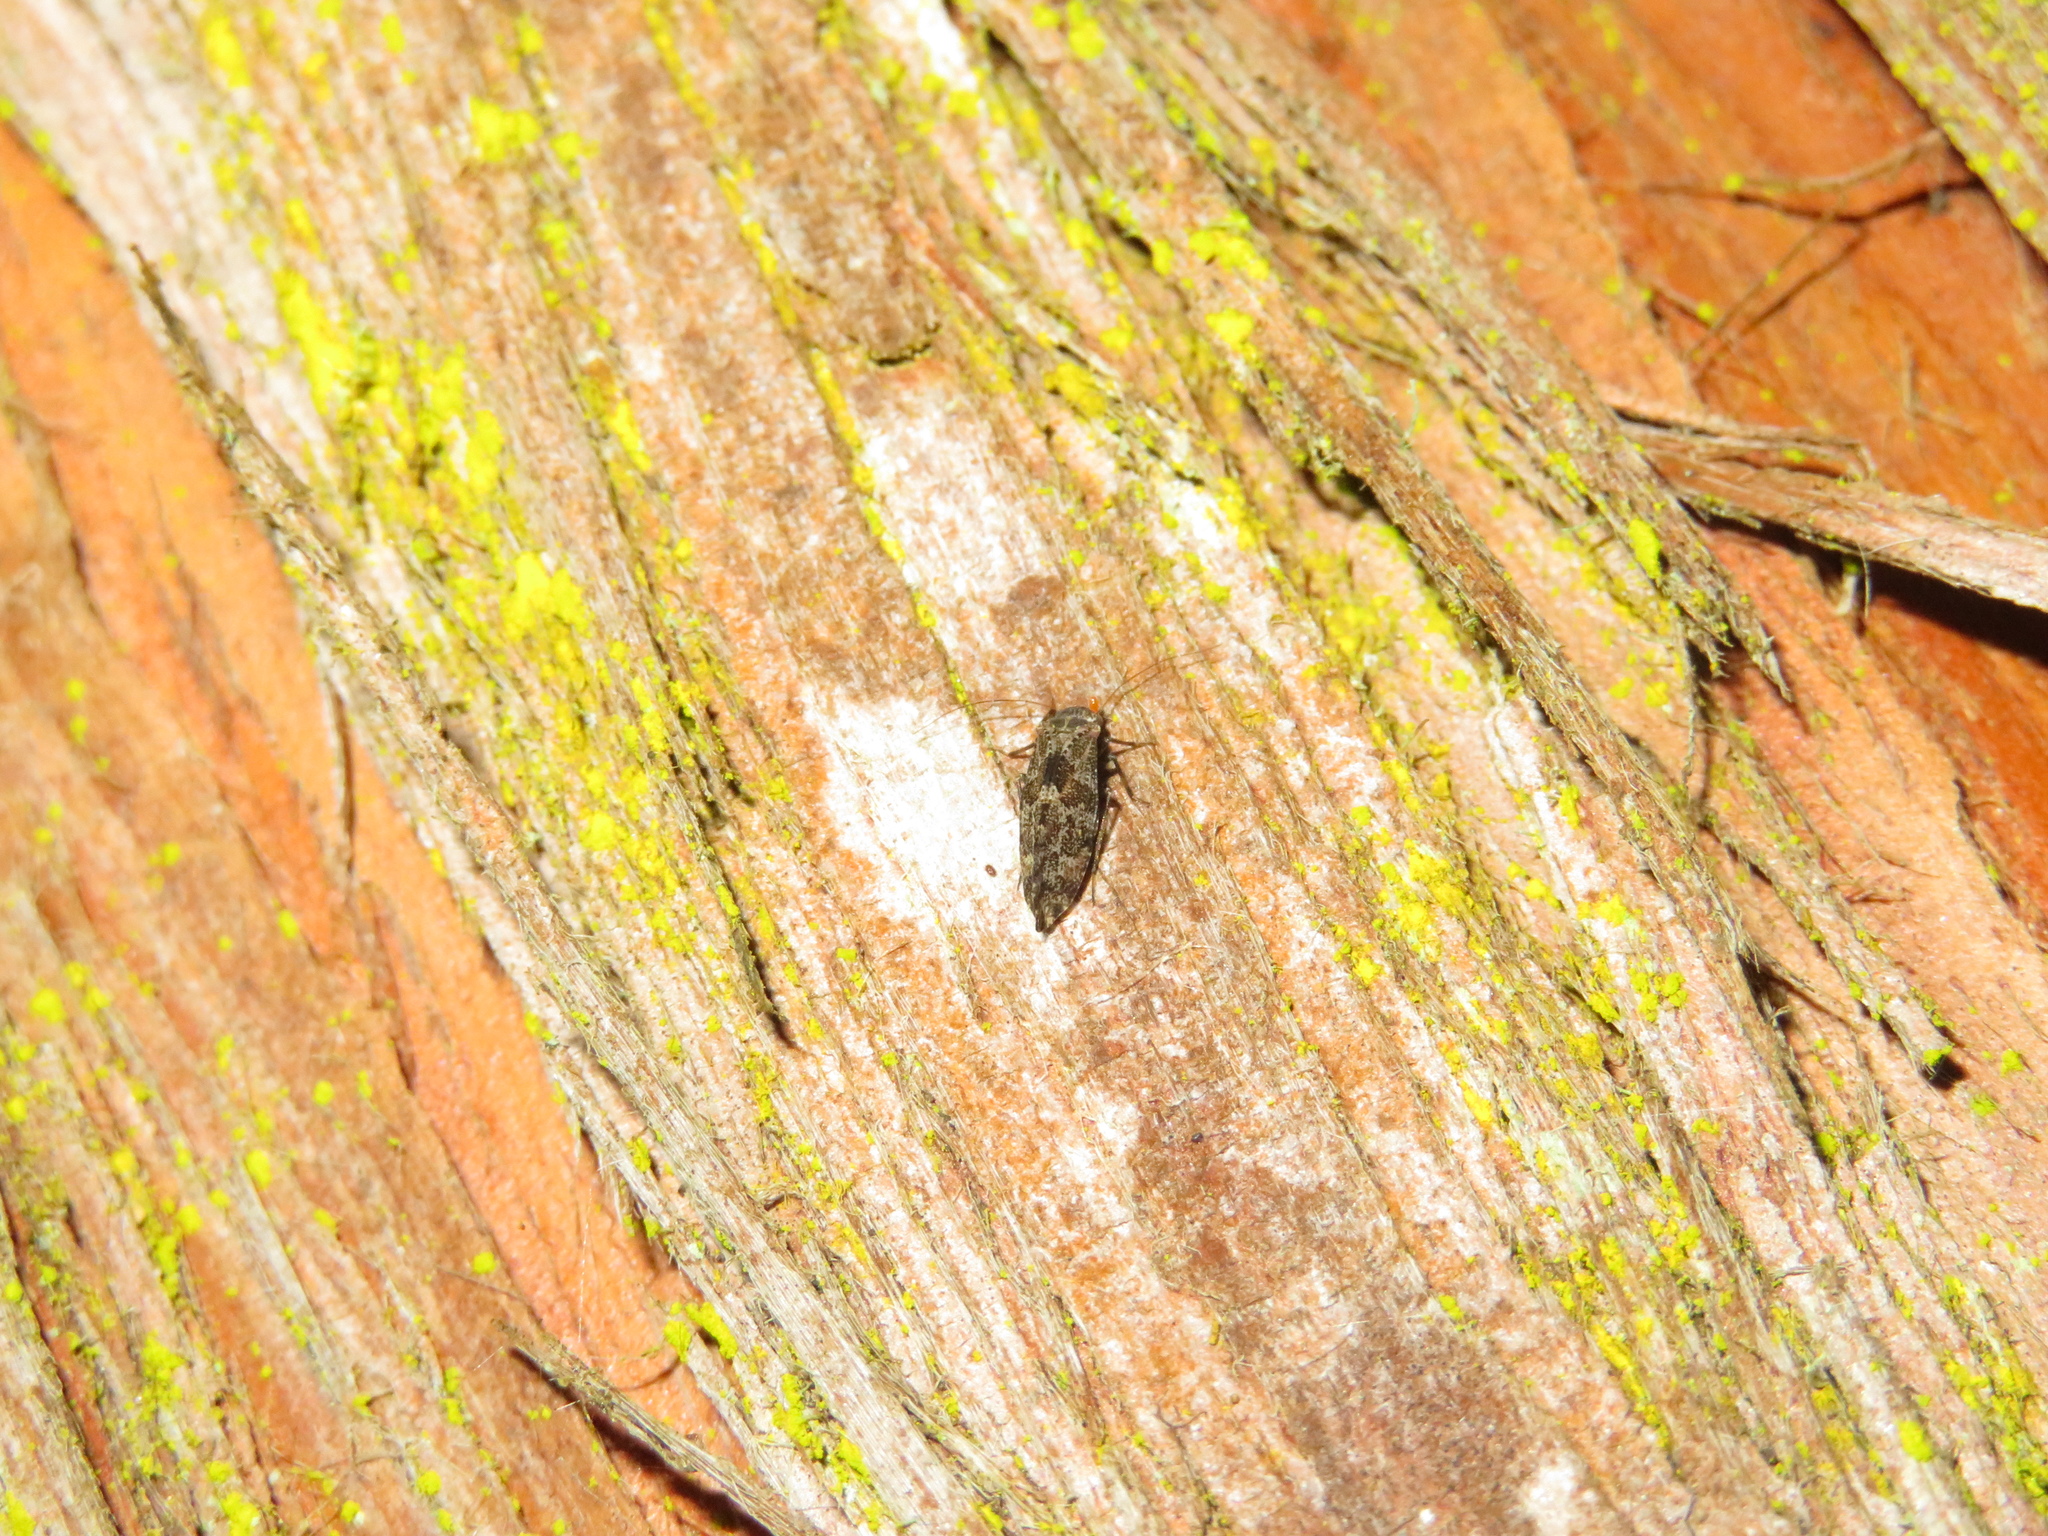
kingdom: Animalia
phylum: Arthropoda
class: Insecta
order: Psocodea
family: Myopsocidae
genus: Nimbopsocus
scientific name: Nimbopsocus australis
